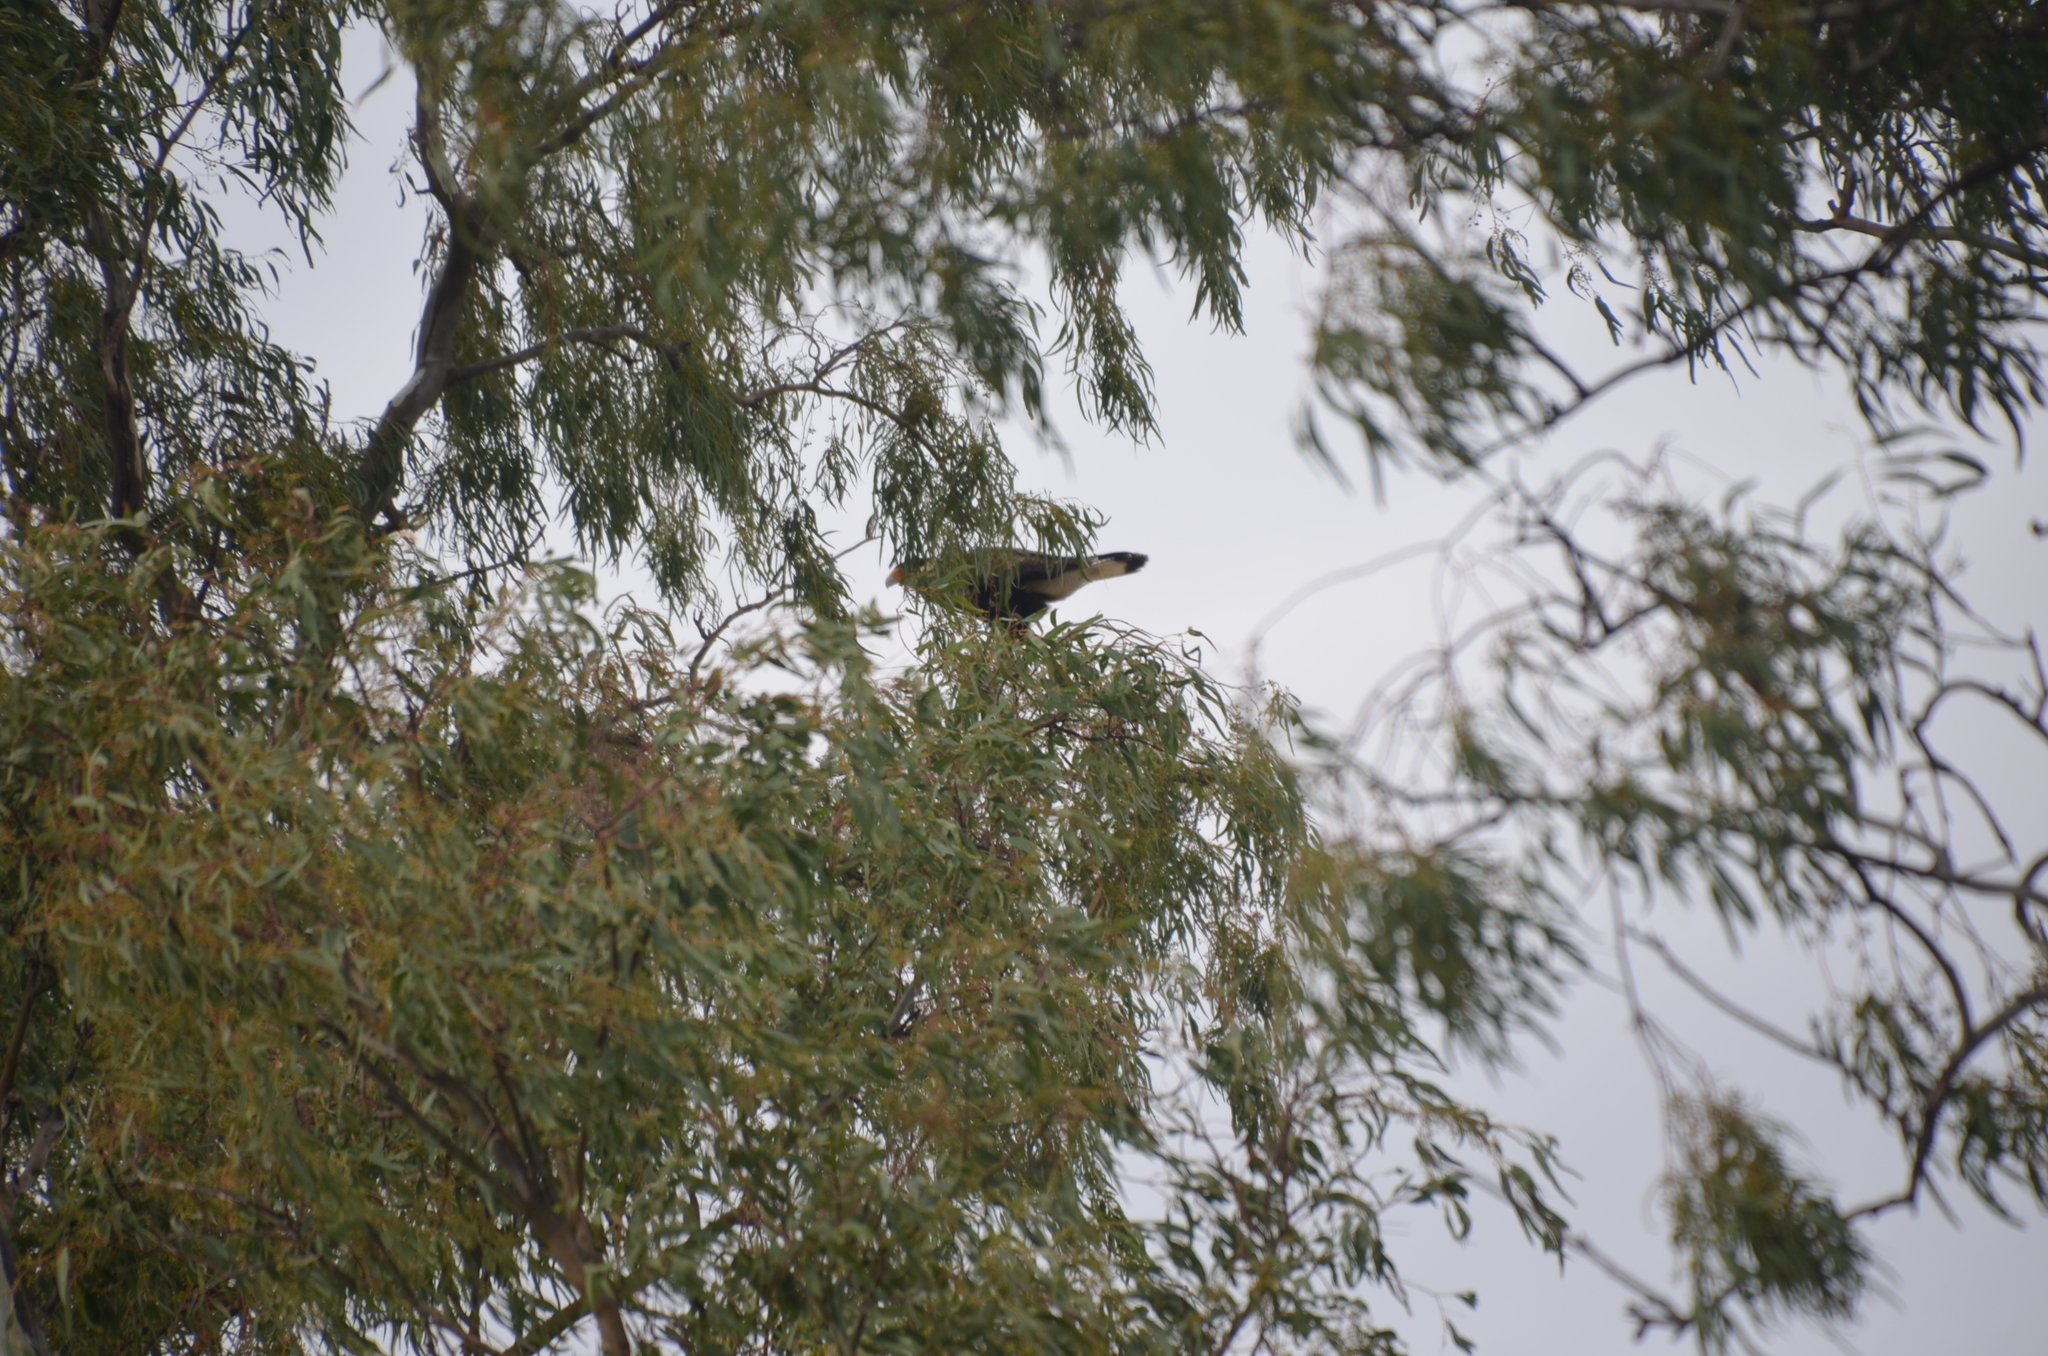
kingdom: Animalia
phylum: Chordata
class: Aves
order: Falconiformes
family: Falconidae
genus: Caracara
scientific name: Caracara plancus
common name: Southern caracara
